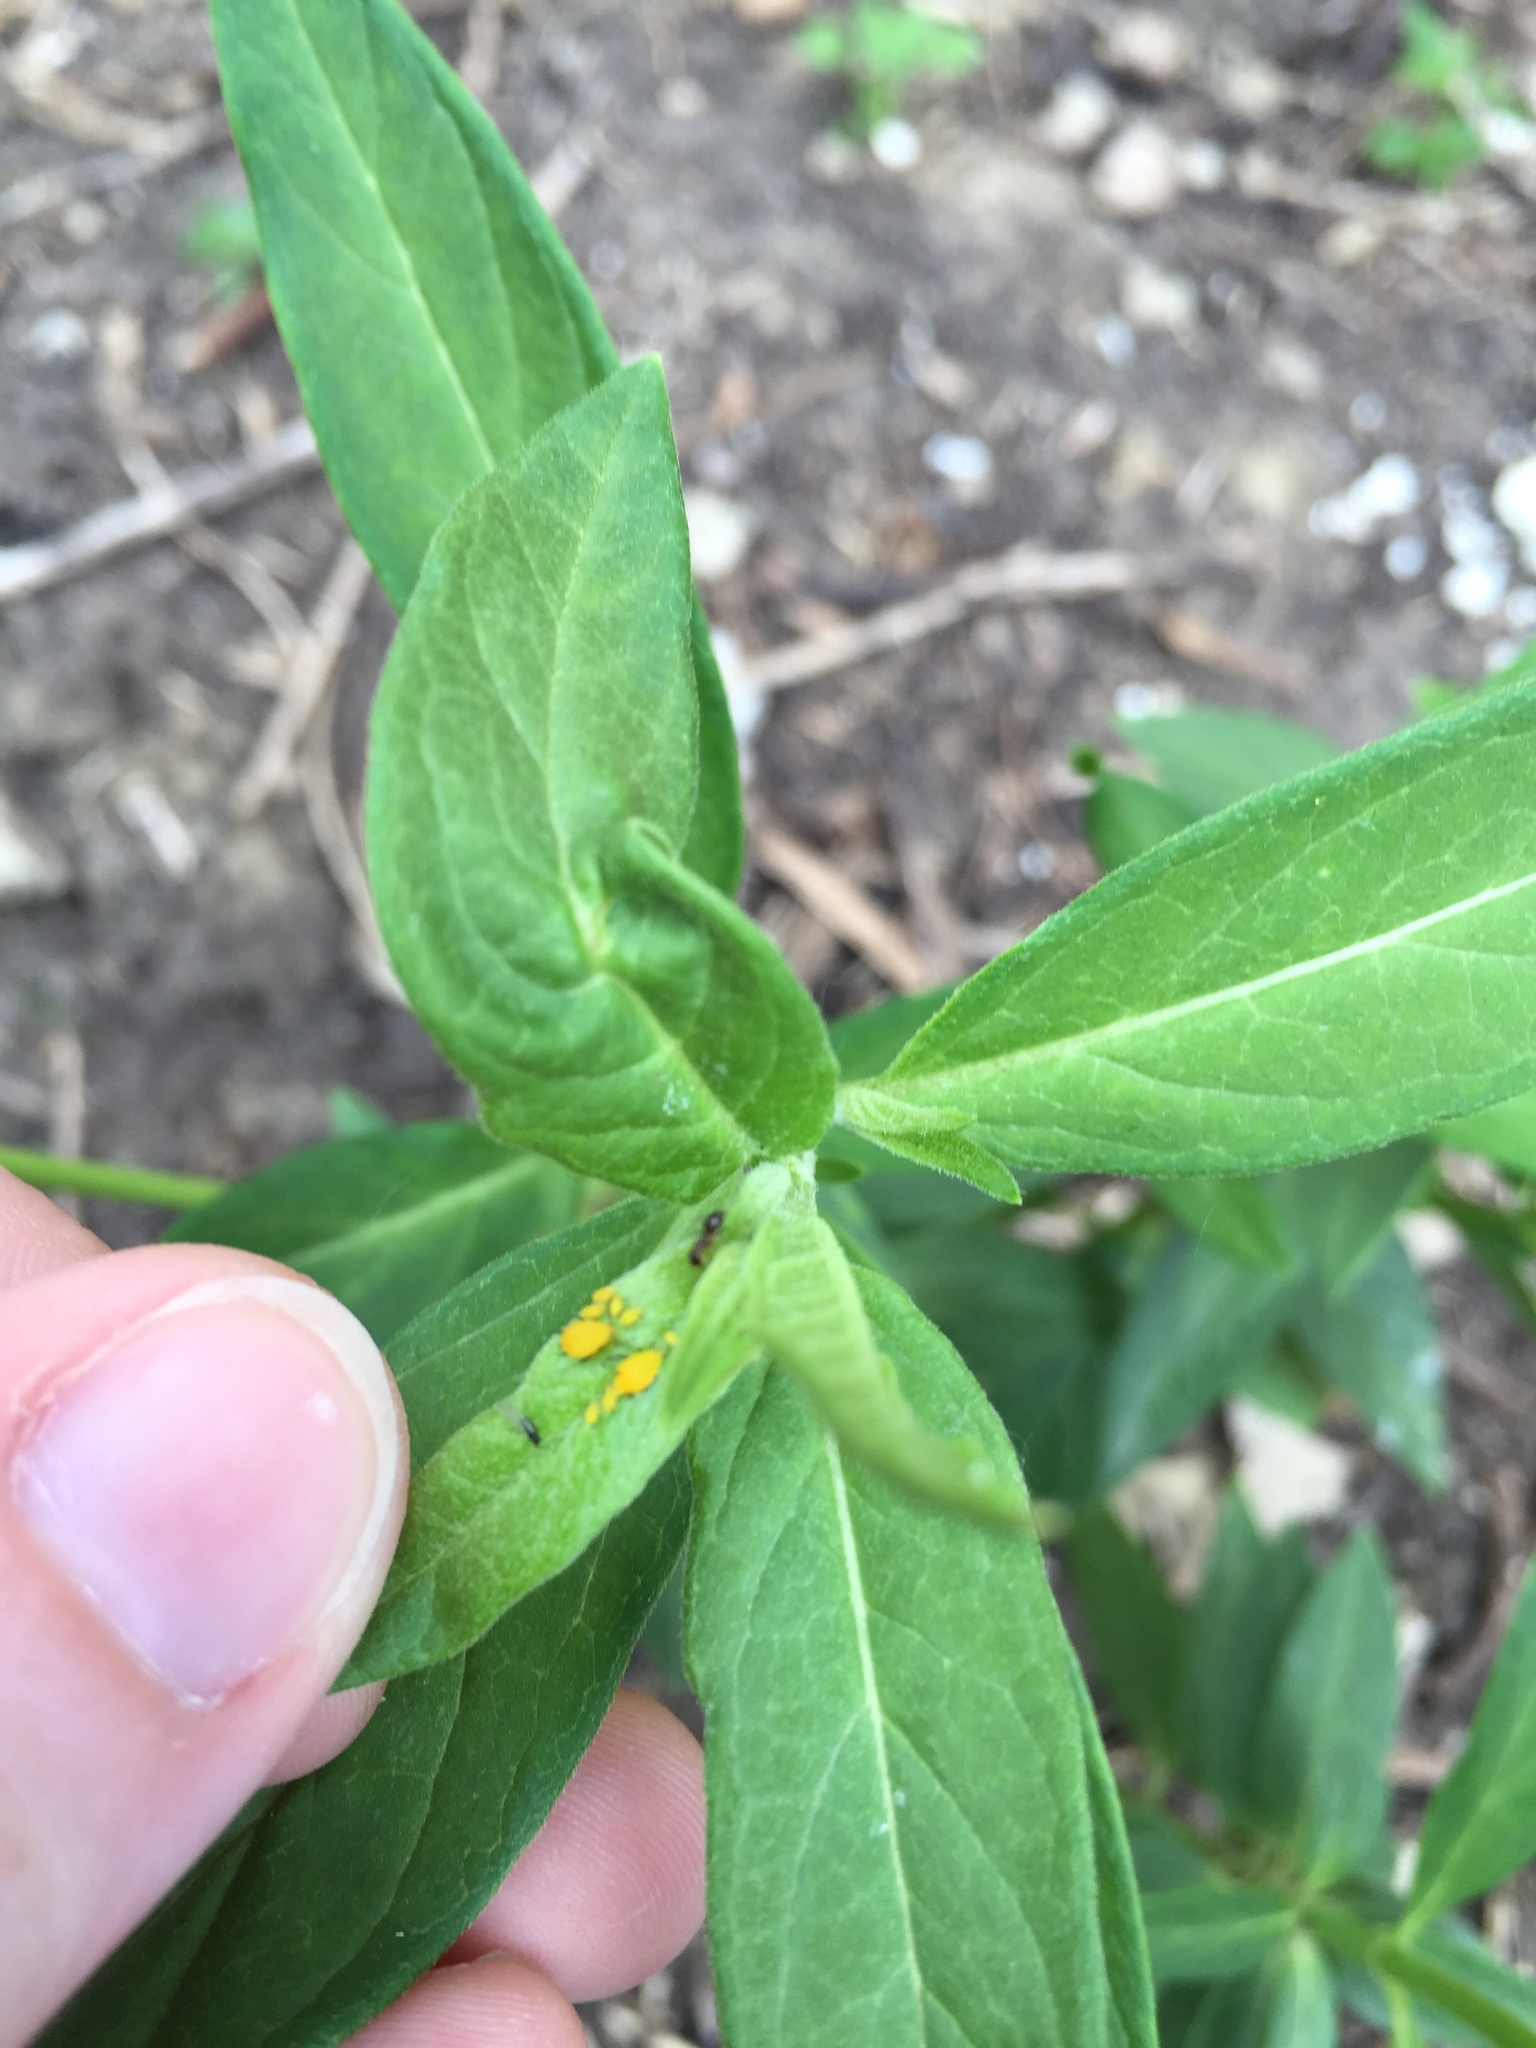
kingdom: Animalia
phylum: Arthropoda
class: Insecta
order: Hemiptera
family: Aphididae
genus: Aphis
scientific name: Aphis nerii
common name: Oleander aphid
